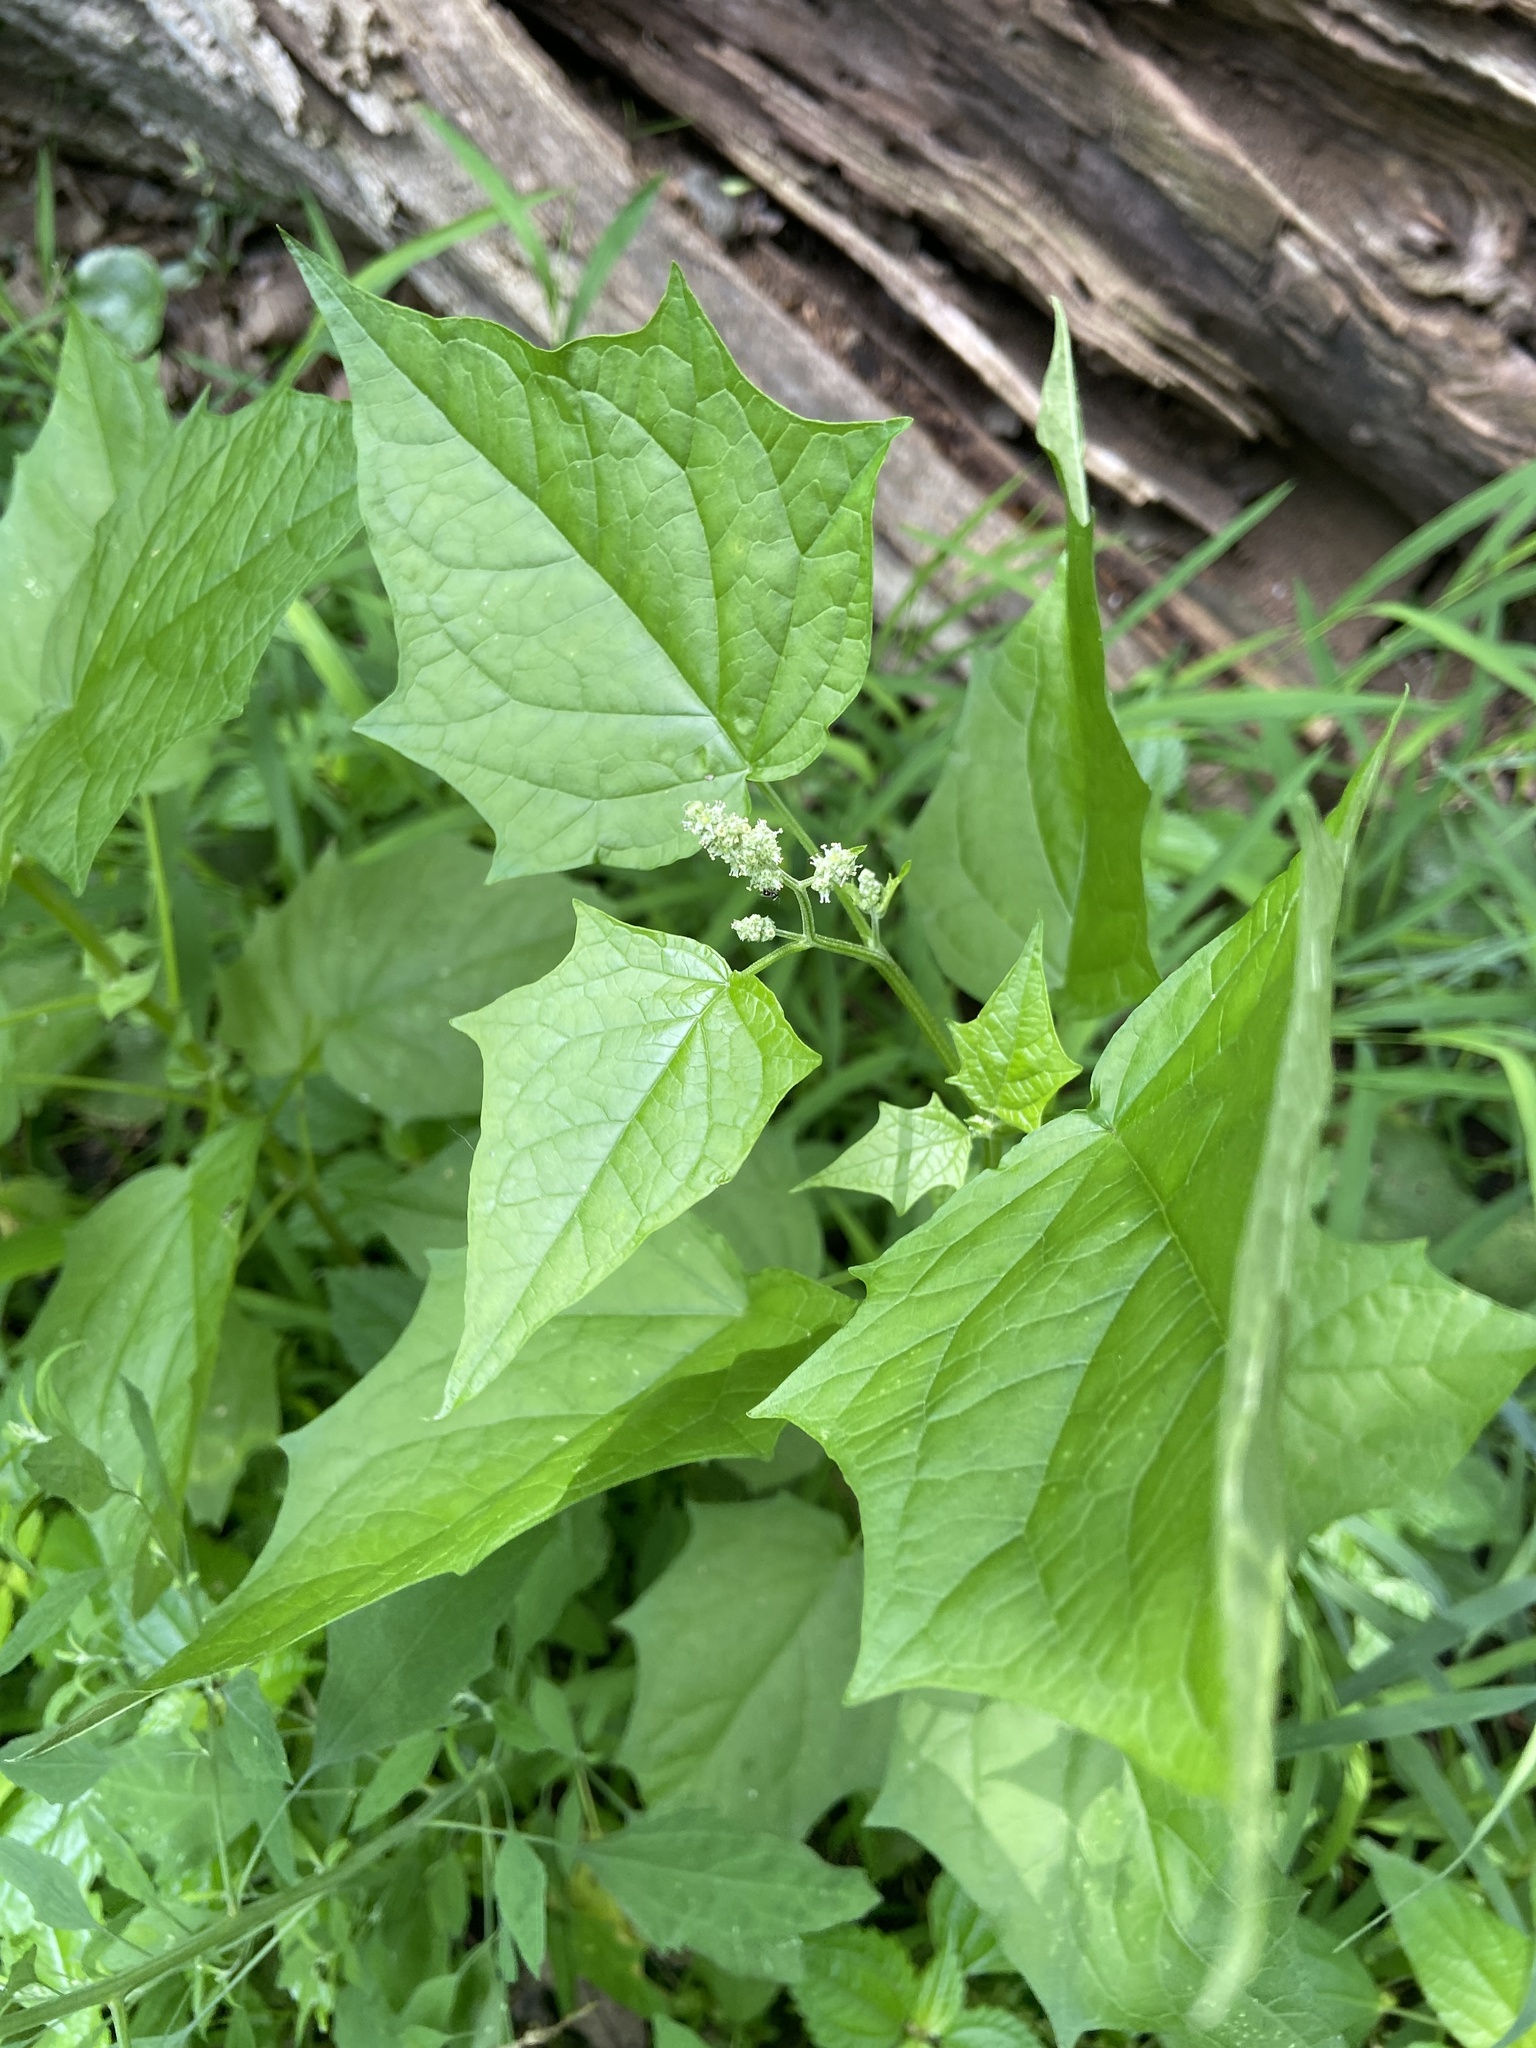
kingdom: Plantae
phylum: Tracheophyta
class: Magnoliopsida
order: Caryophyllales
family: Amaranthaceae
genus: Chenopodiastrum
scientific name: Chenopodiastrum simplex
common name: Large-seed goosefoot
